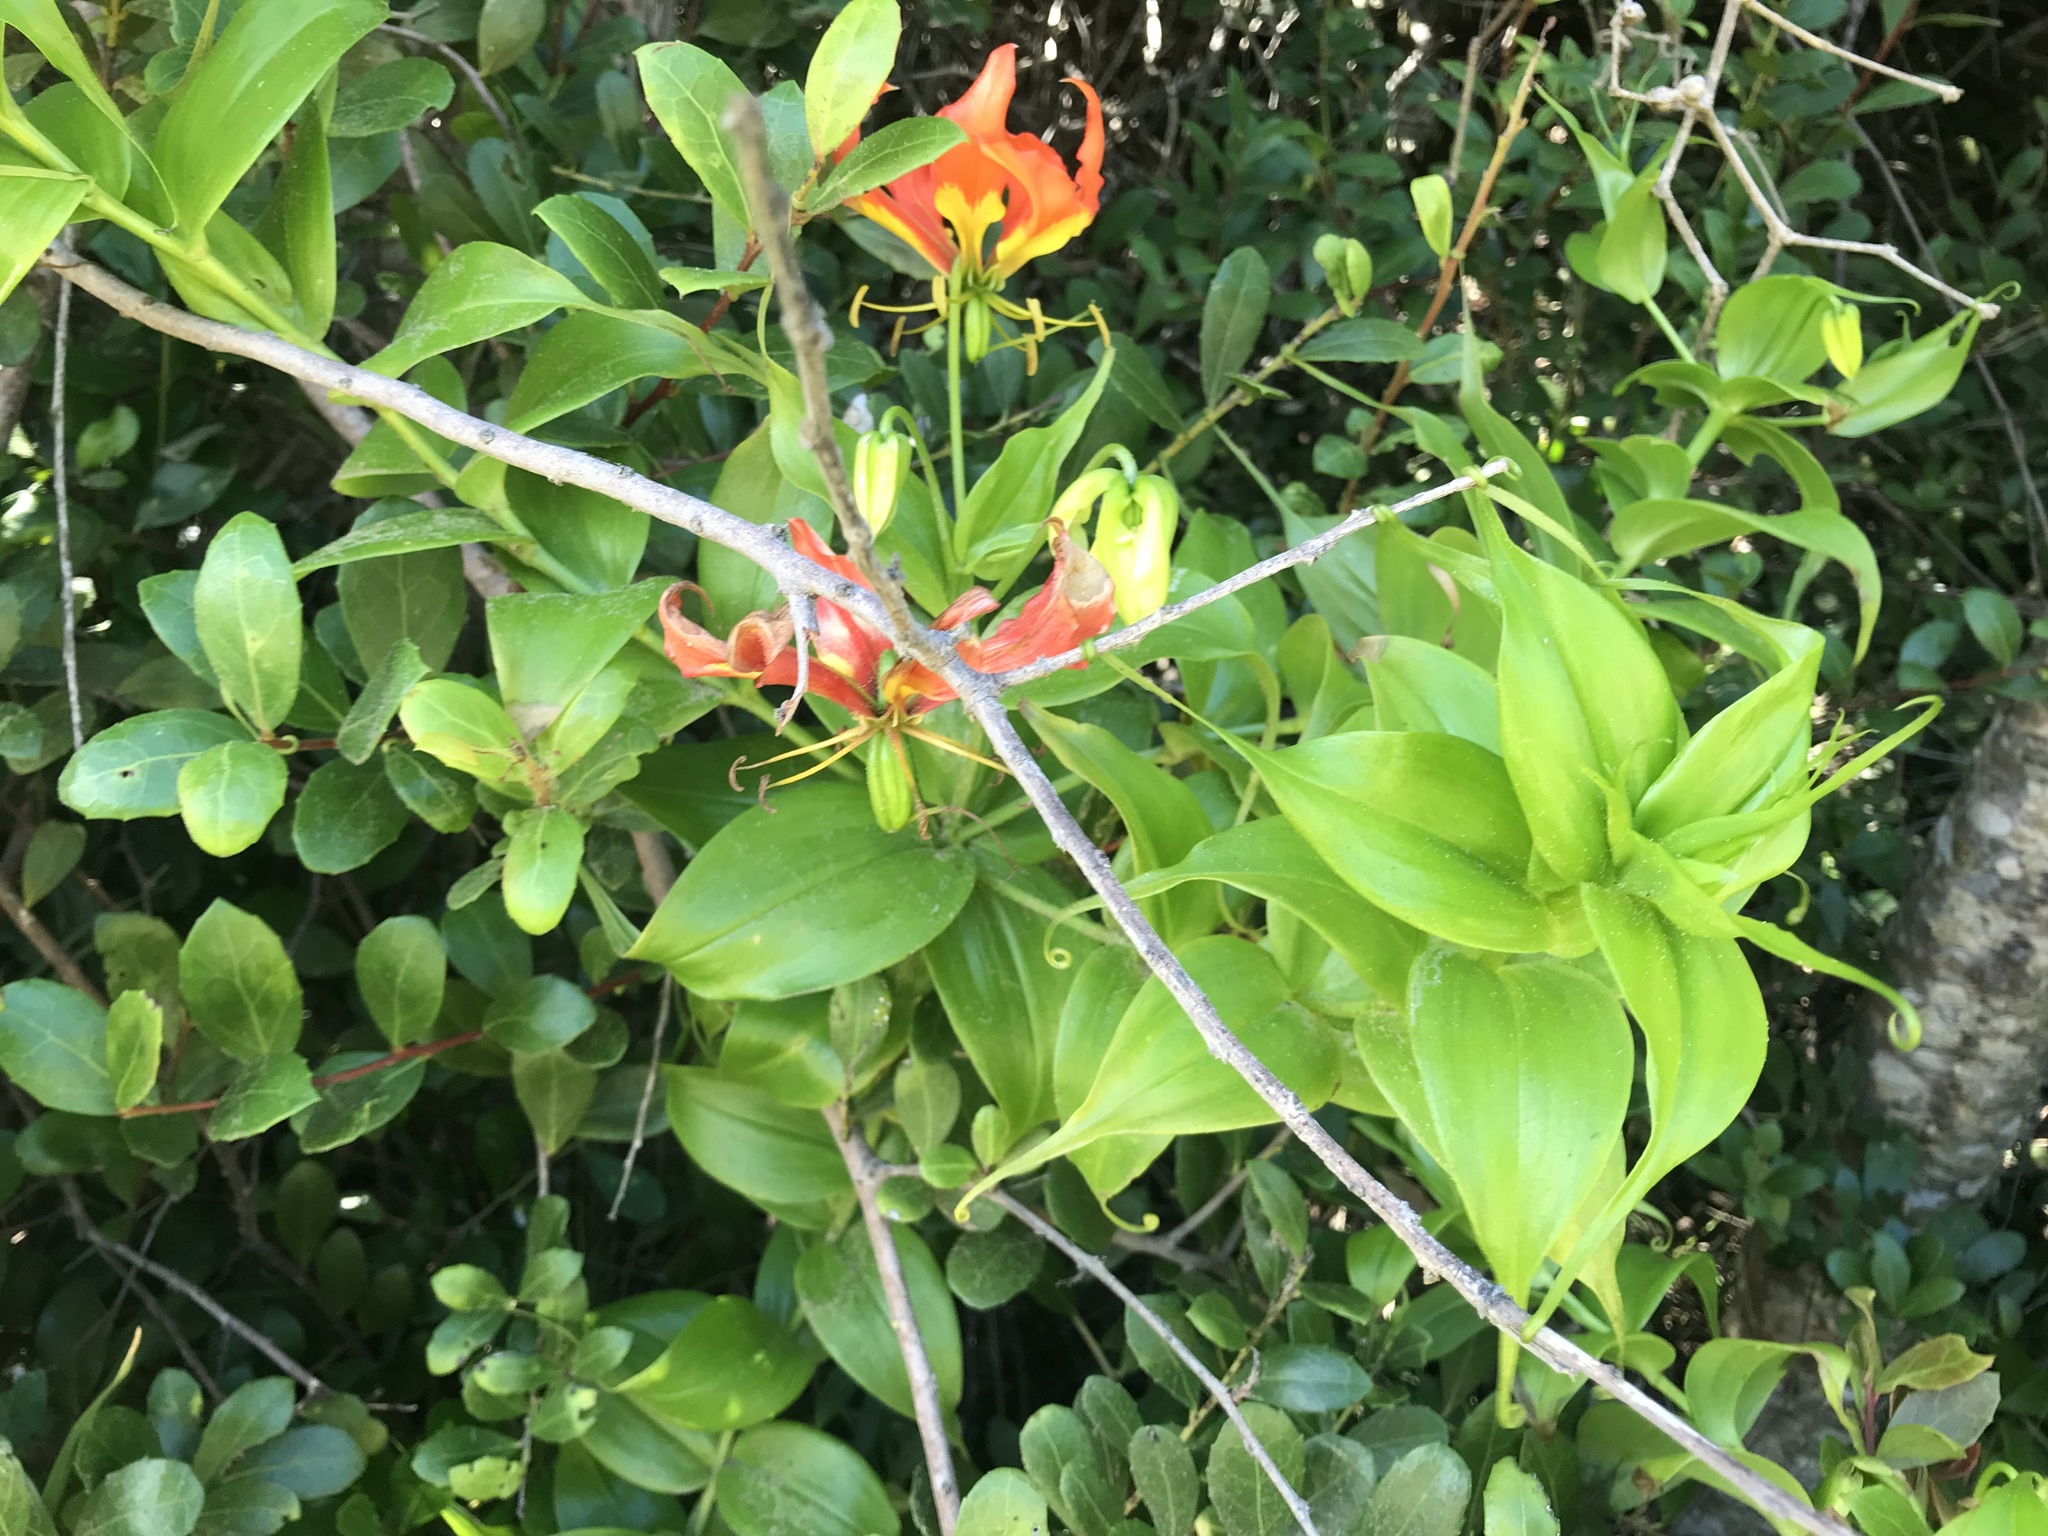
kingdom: Plantae
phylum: Tracheophyta
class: Liliopsida
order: Liliales
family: Colchicaceae
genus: Gloriosa
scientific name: Gloriosa superba
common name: Flame lily
